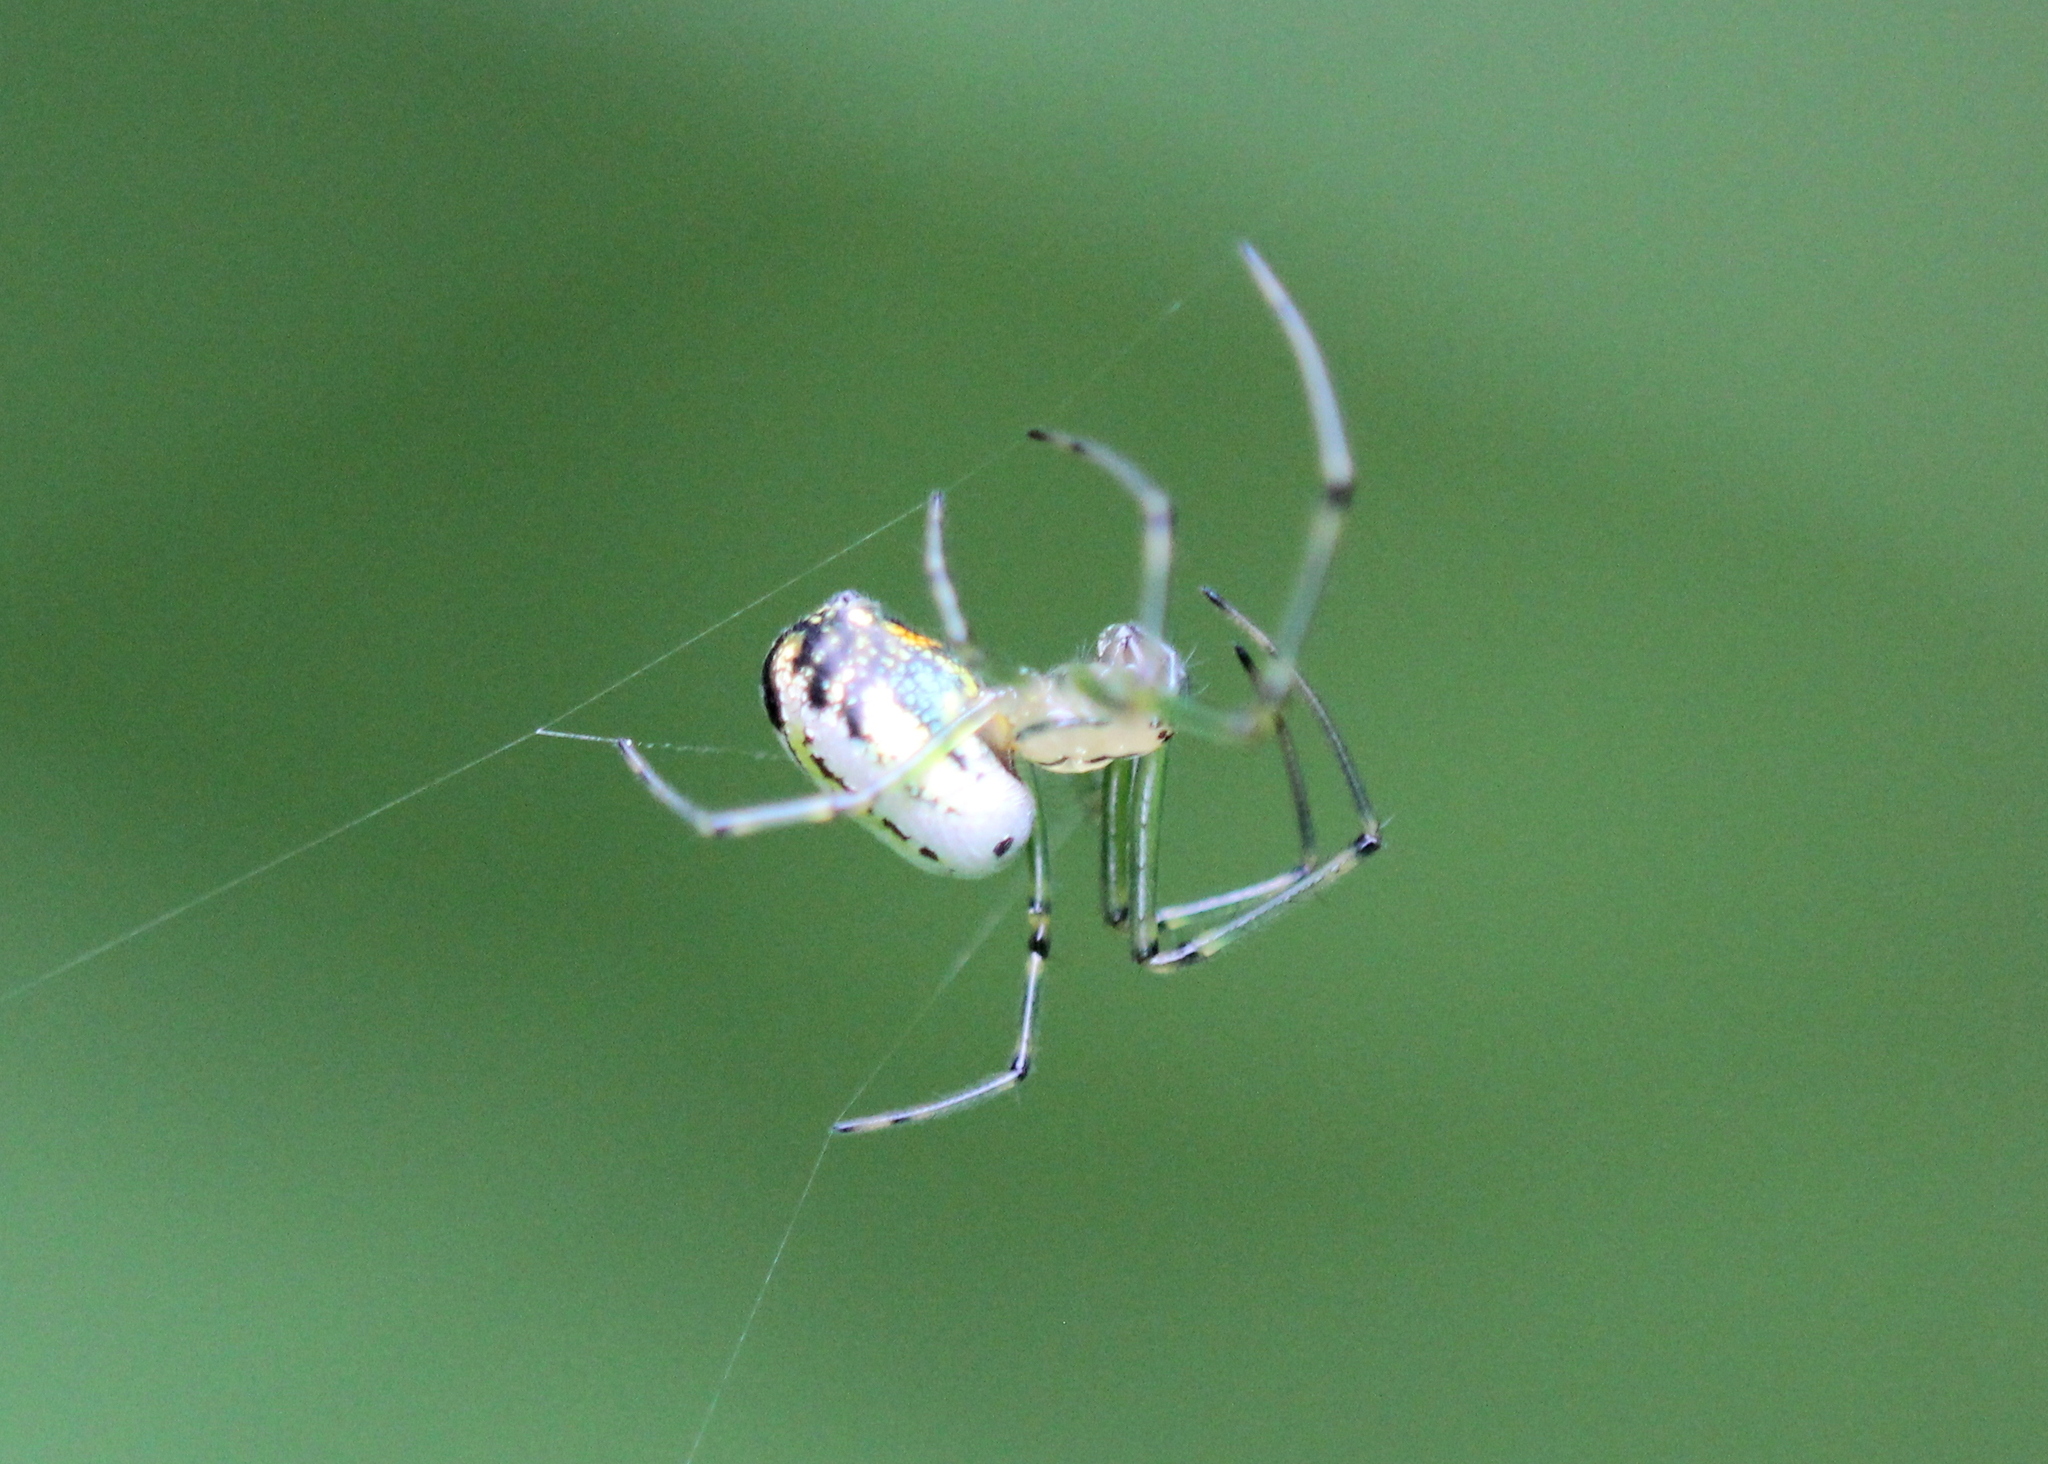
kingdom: Animalia
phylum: Arthropoda
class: Arachnida
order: Araneae
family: Tetragnathidae
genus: Leucauge
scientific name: Leucauge venusta
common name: Longjawed orb weavers
